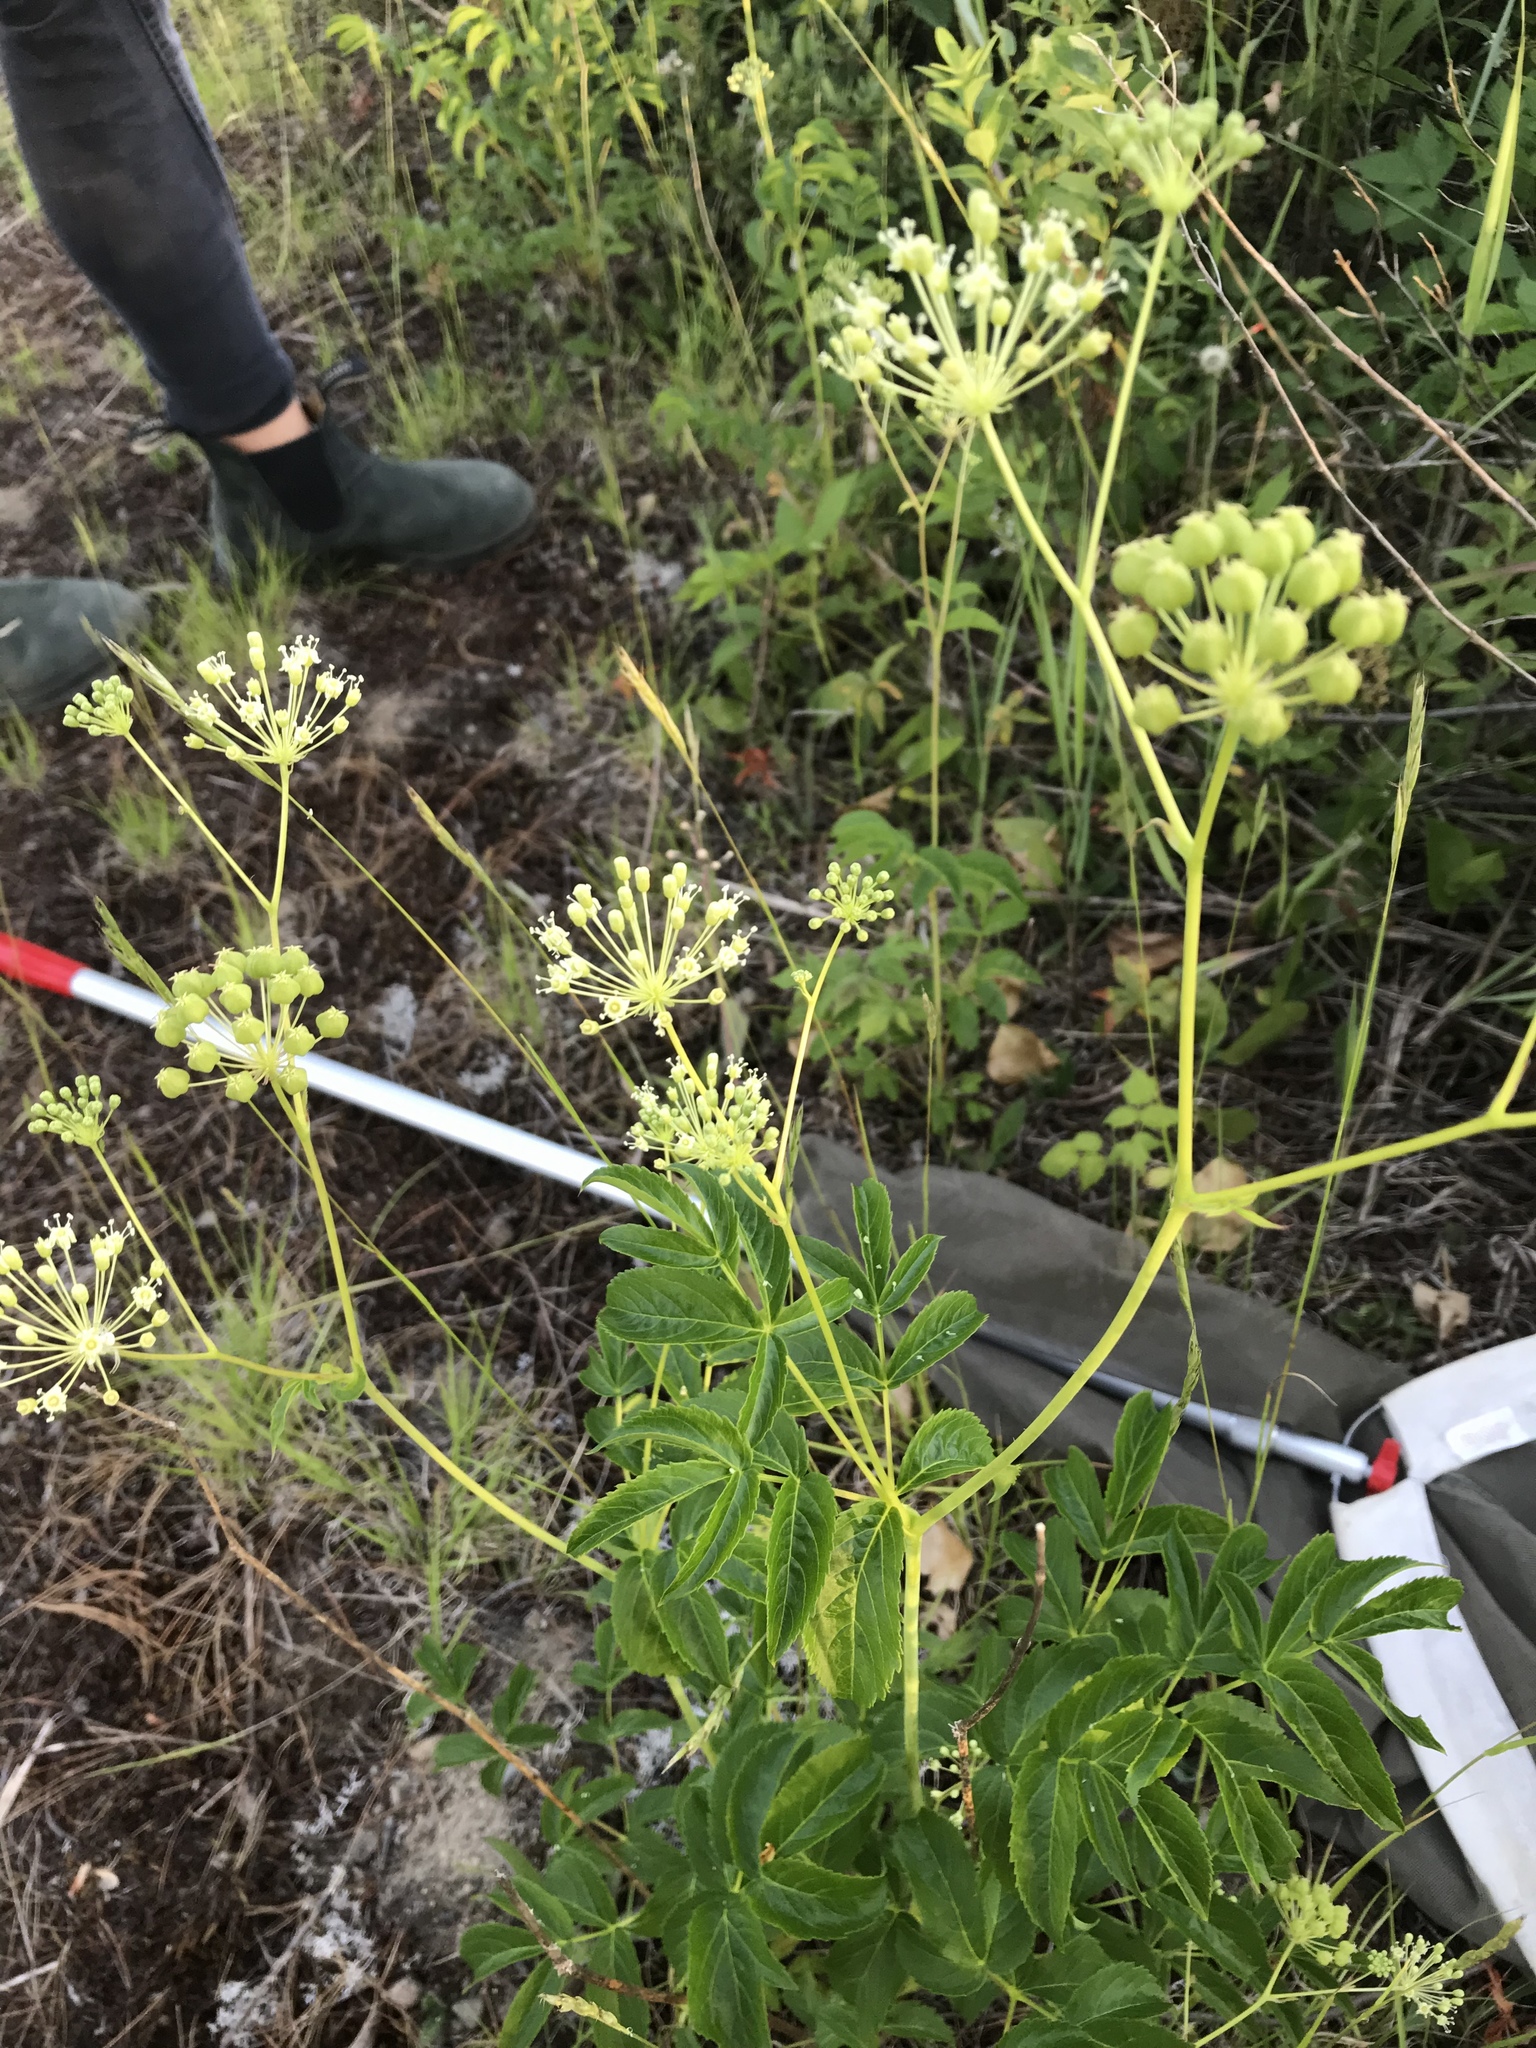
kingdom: Plantae
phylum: Tracheophyta
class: Magnoliopsida
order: Apiales
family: Araliaceae
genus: Aralia
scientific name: Aralia hispida
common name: Bristly sarsaparilla
